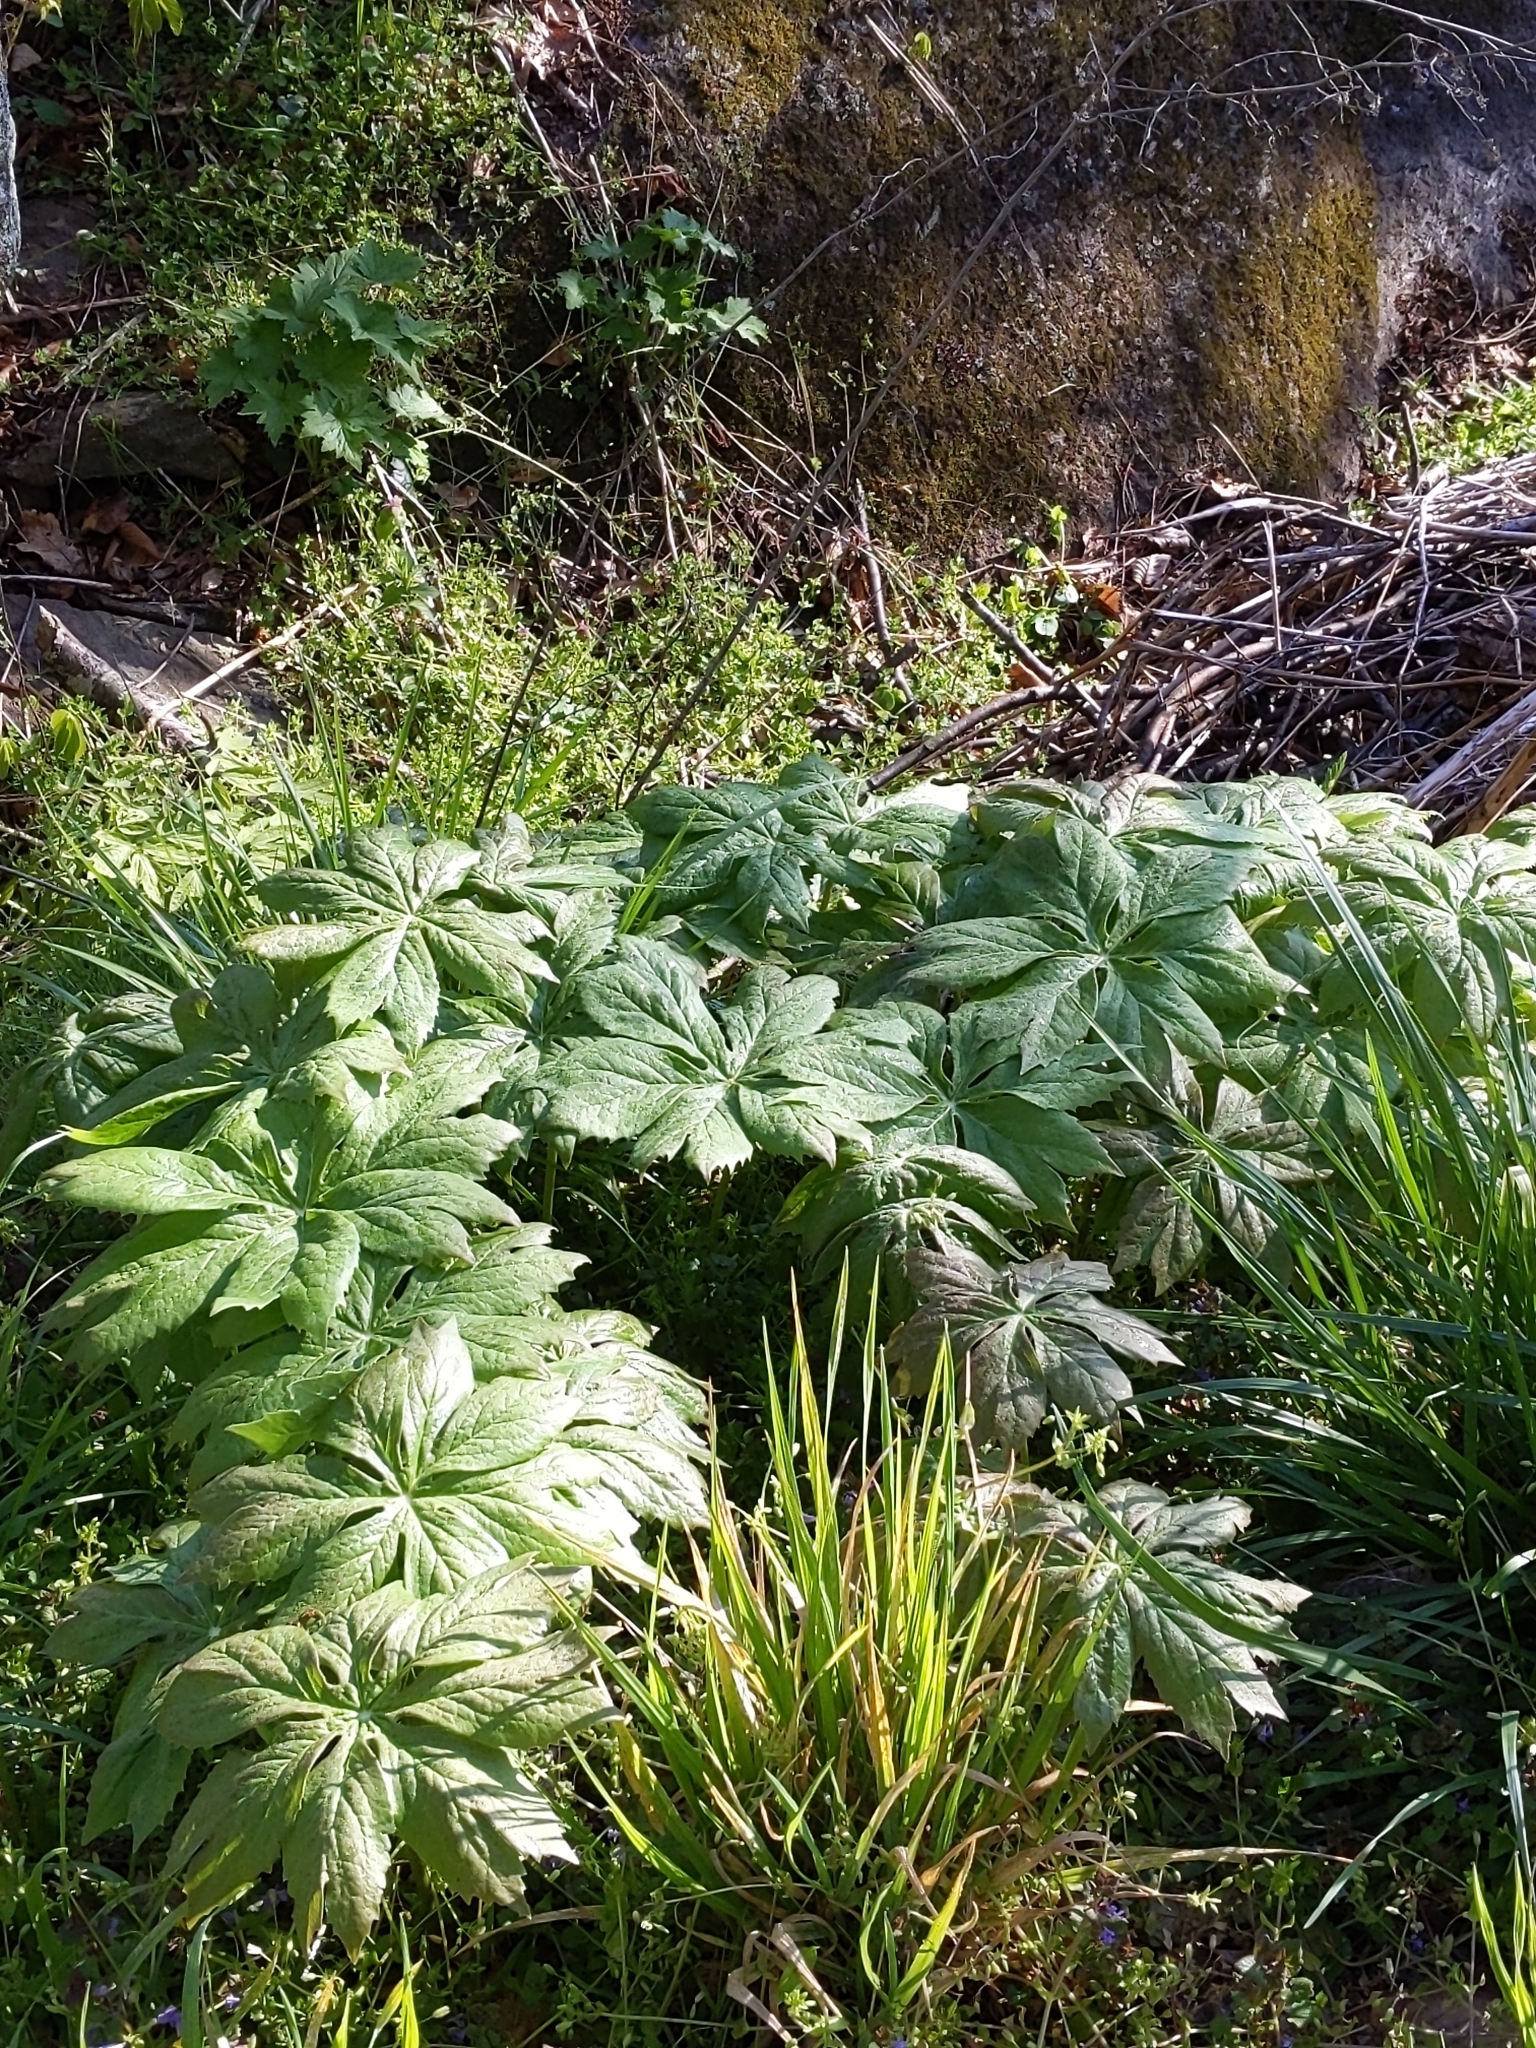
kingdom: Plantae
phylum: Tracheophyta
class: Magnoliopsida
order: Ranunculales
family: Berberidaceae
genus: Podophyllum
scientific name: Podophyllum peltatum
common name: Wild mandrake
